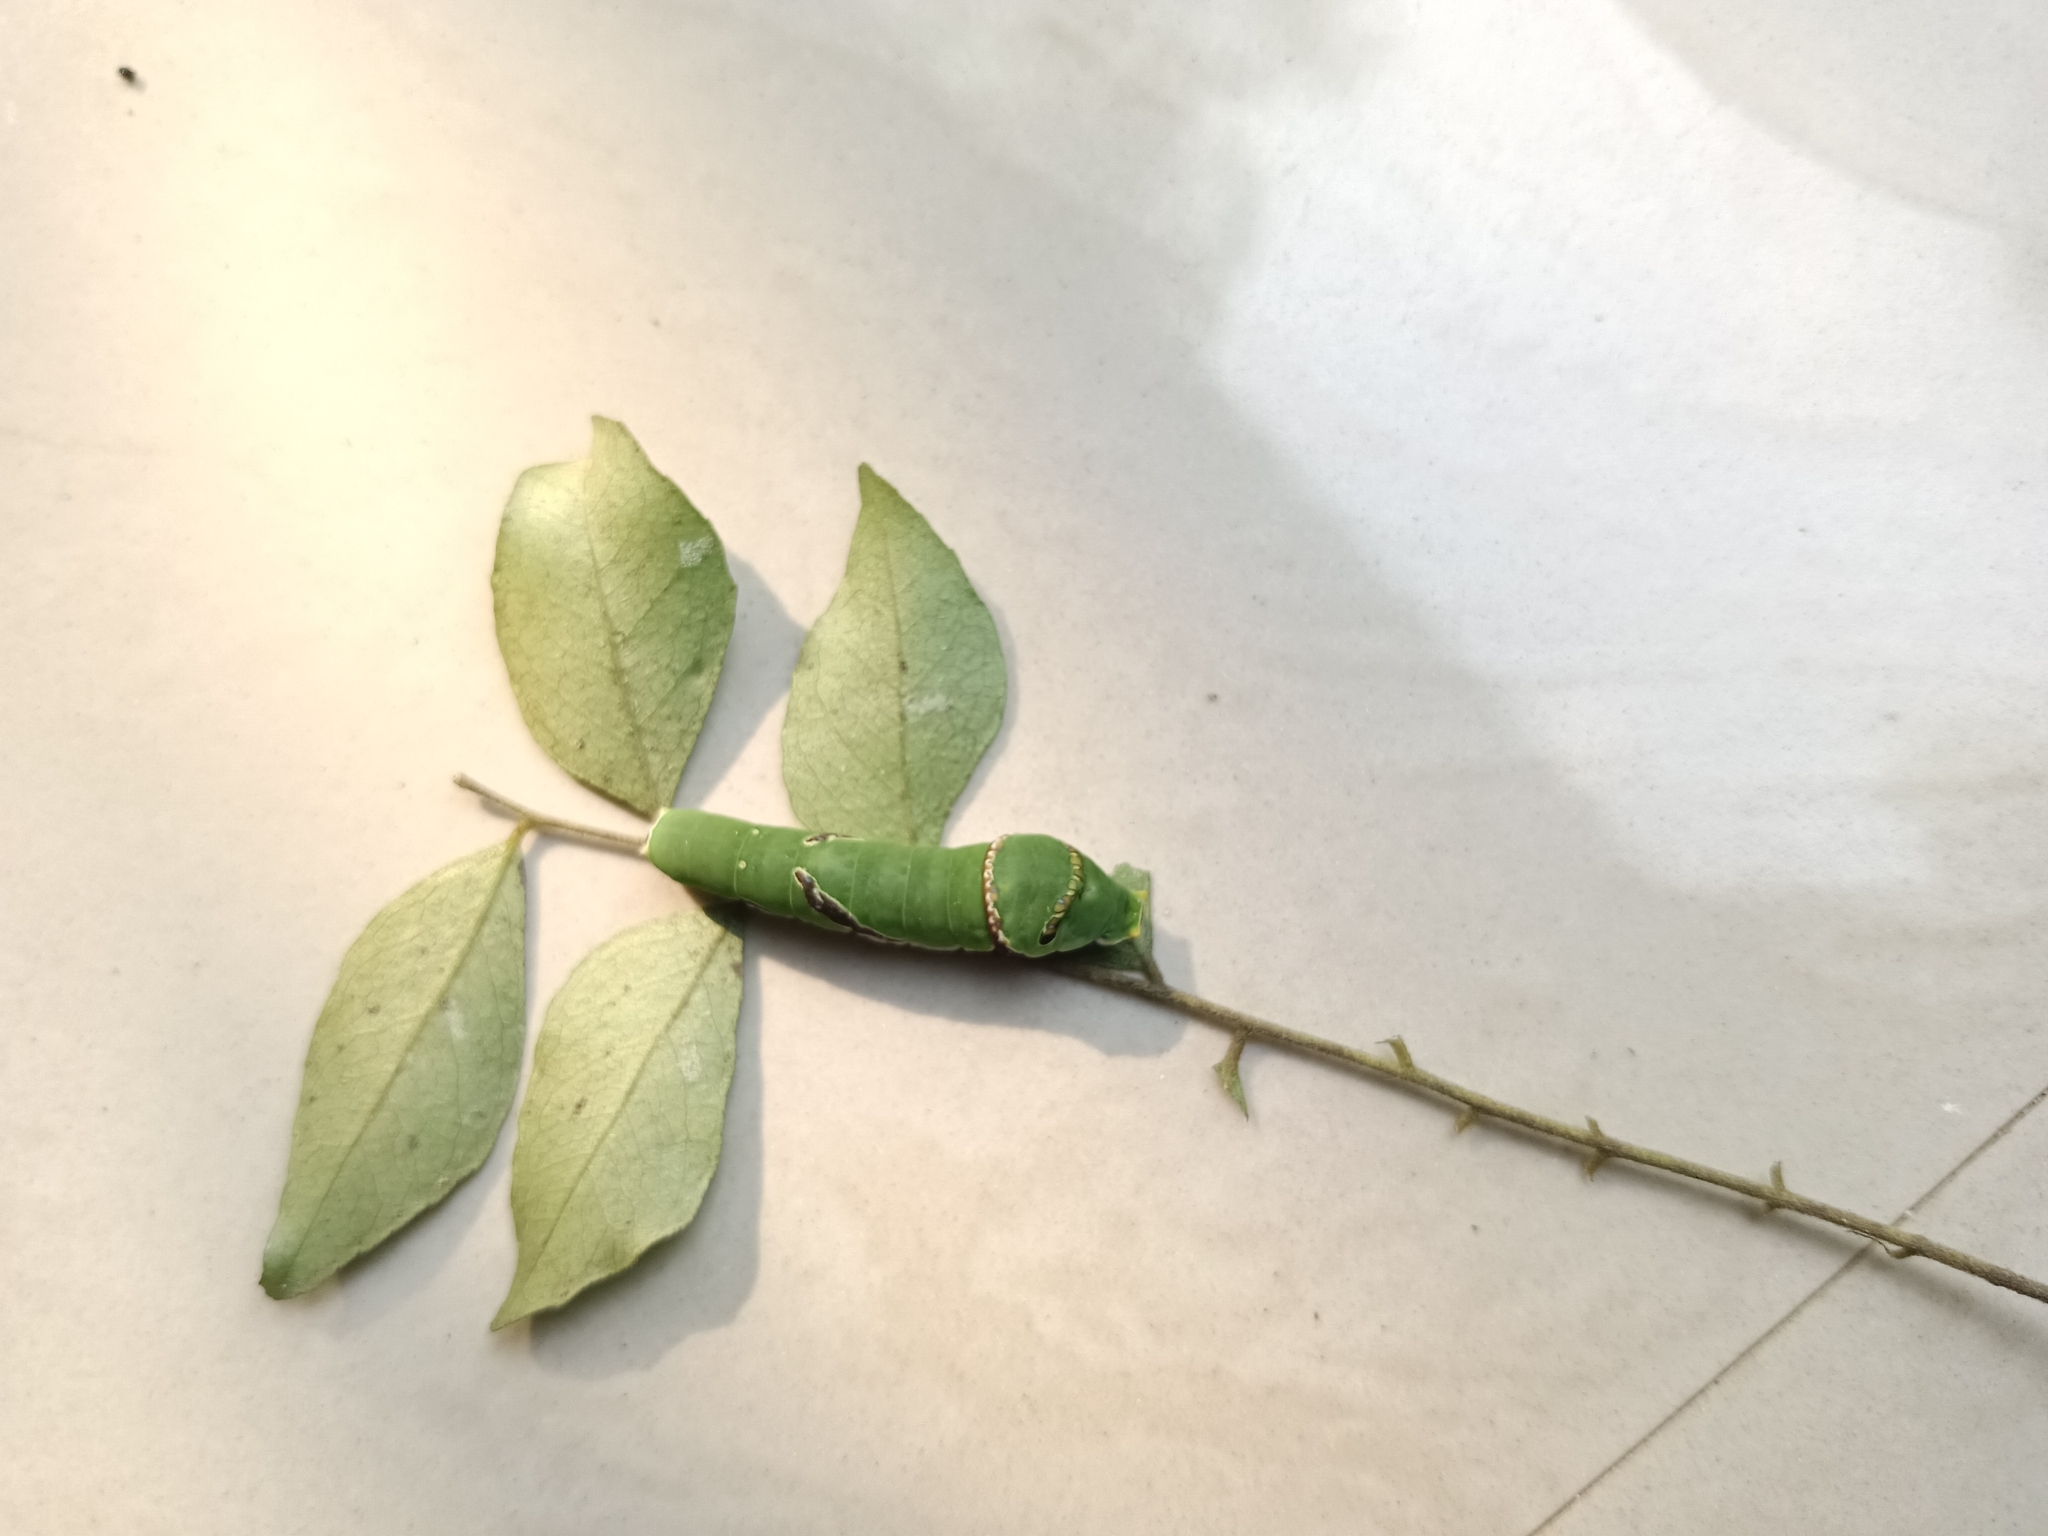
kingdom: Animalia
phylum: Arthropoda
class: Insecta
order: Lepidoptera
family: Papilionidae
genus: Papilio
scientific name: Papilio polytes
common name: Common mormon
